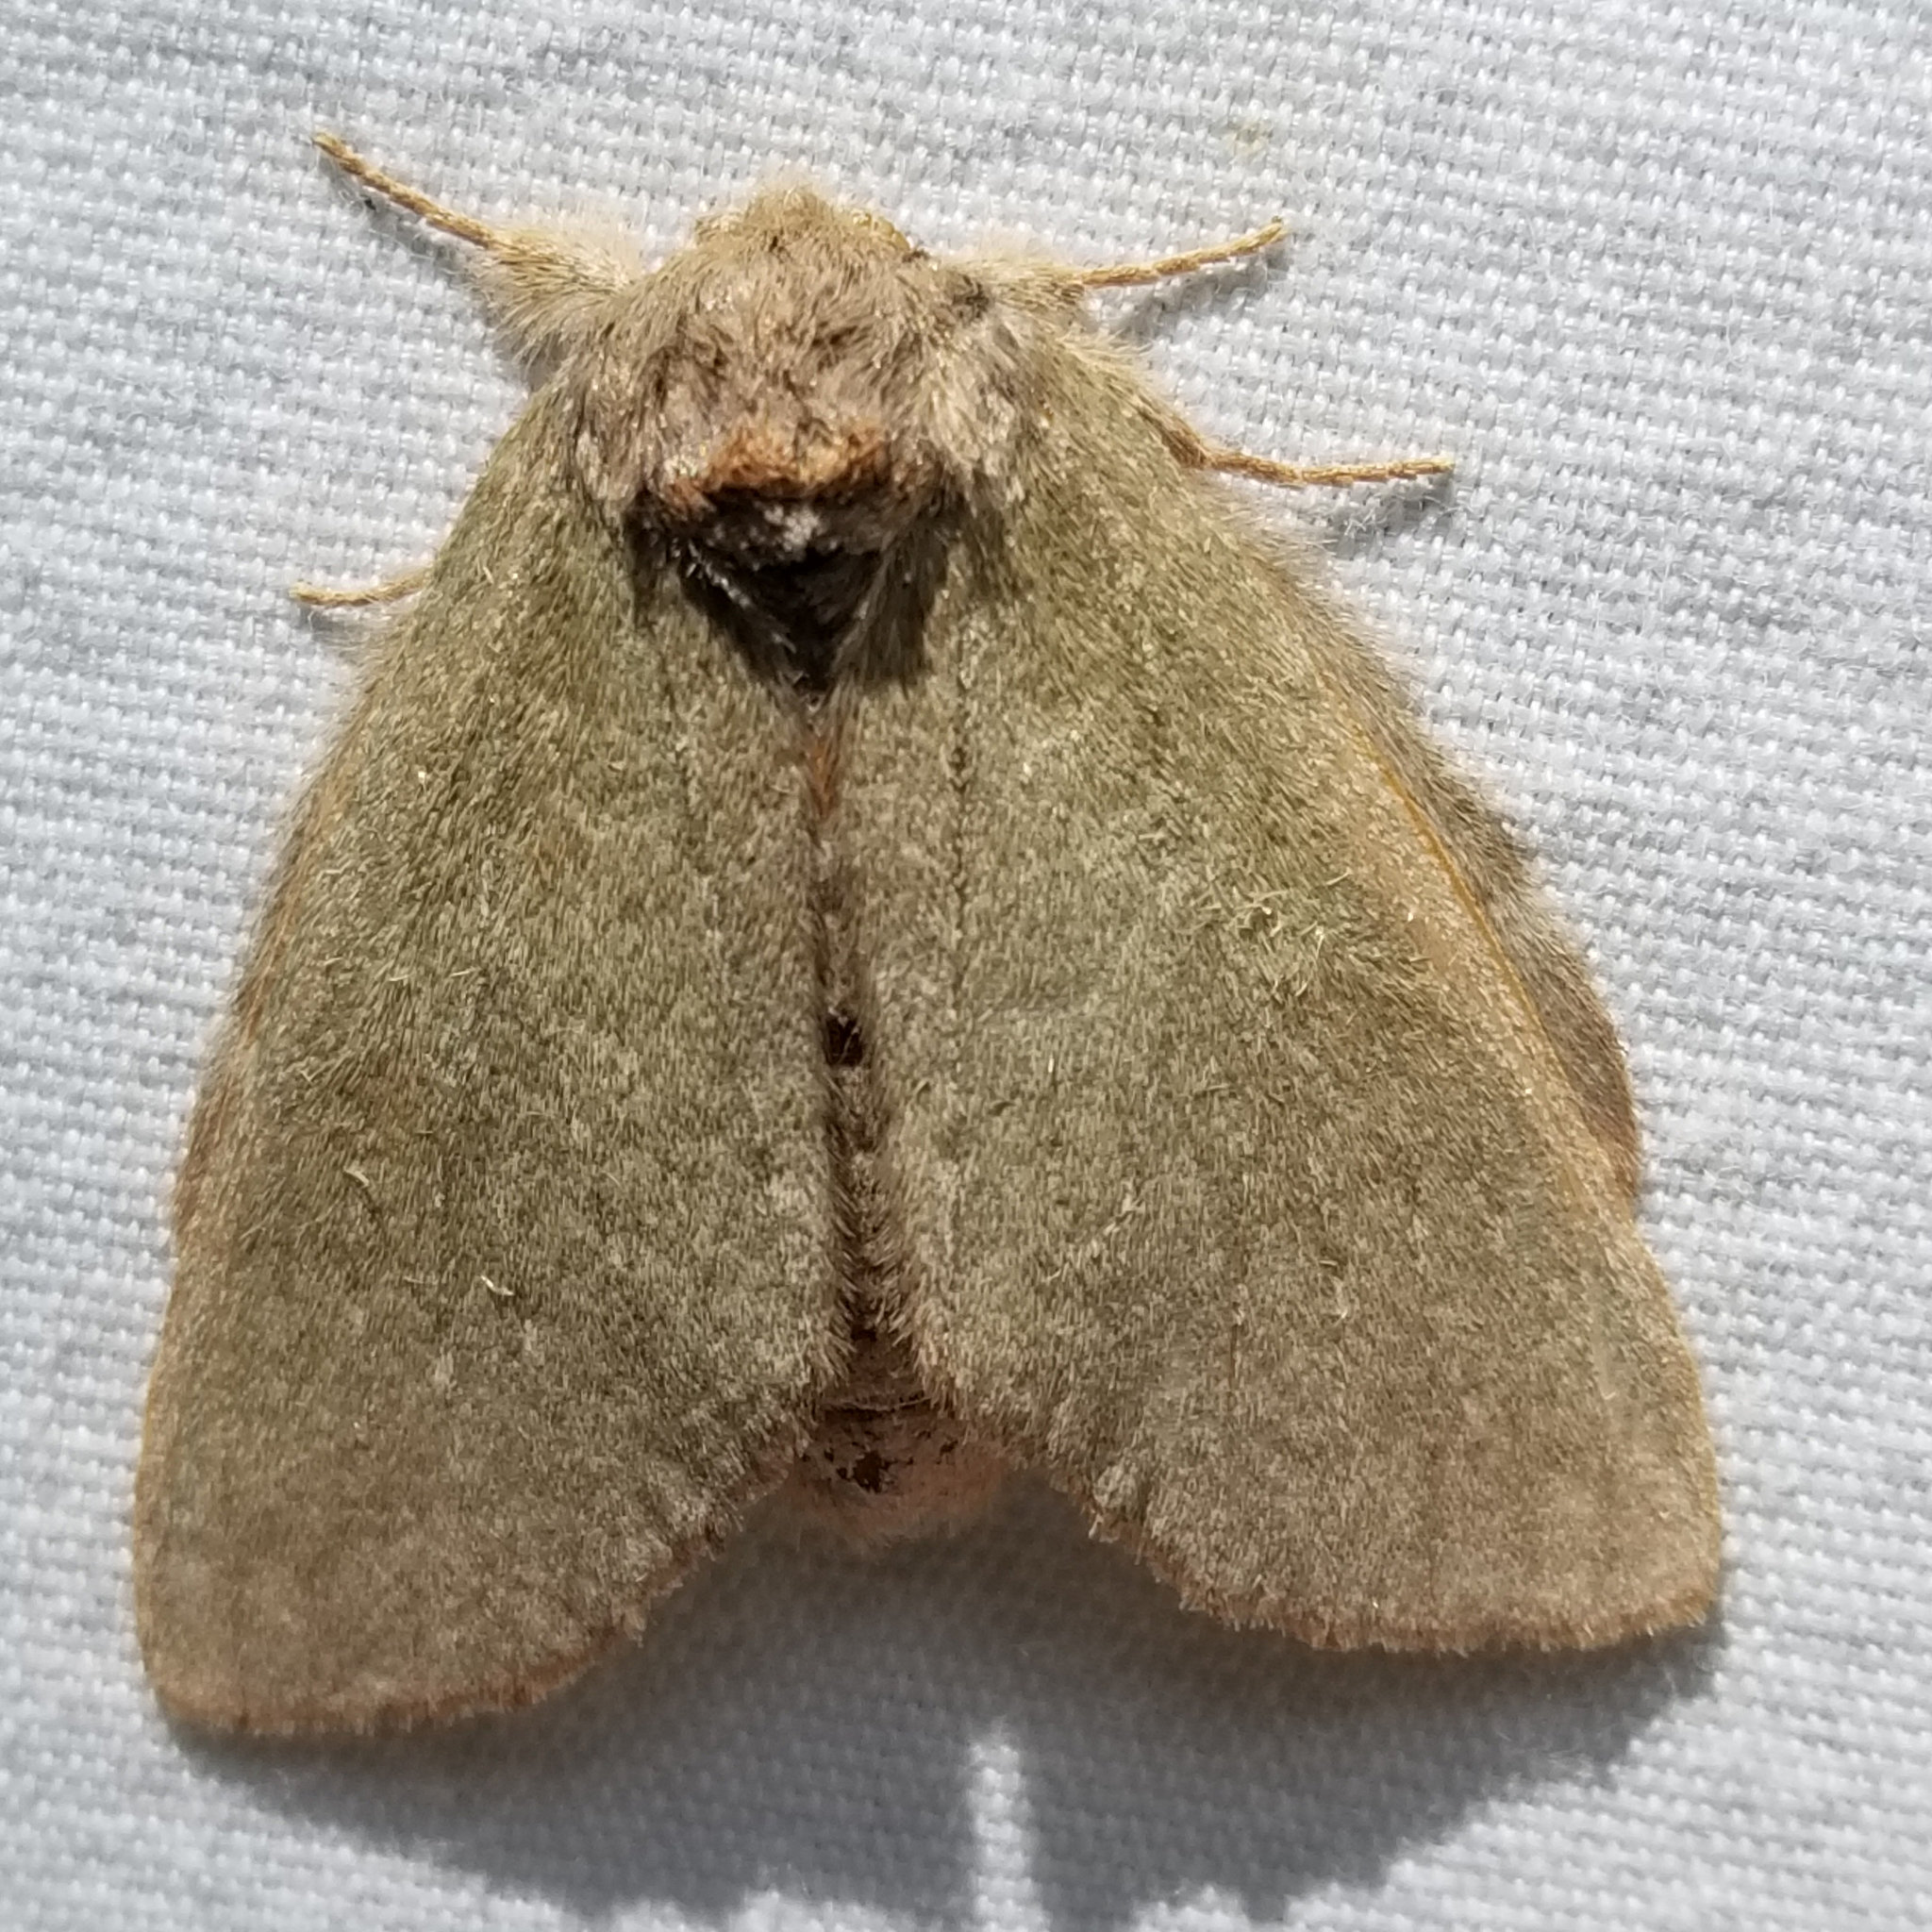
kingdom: Animalia
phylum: Arthropoda
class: Insecta
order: Lepidoptera
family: Notodontidae
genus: Misogada
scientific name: Misogada unicolor
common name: Drab prominent
